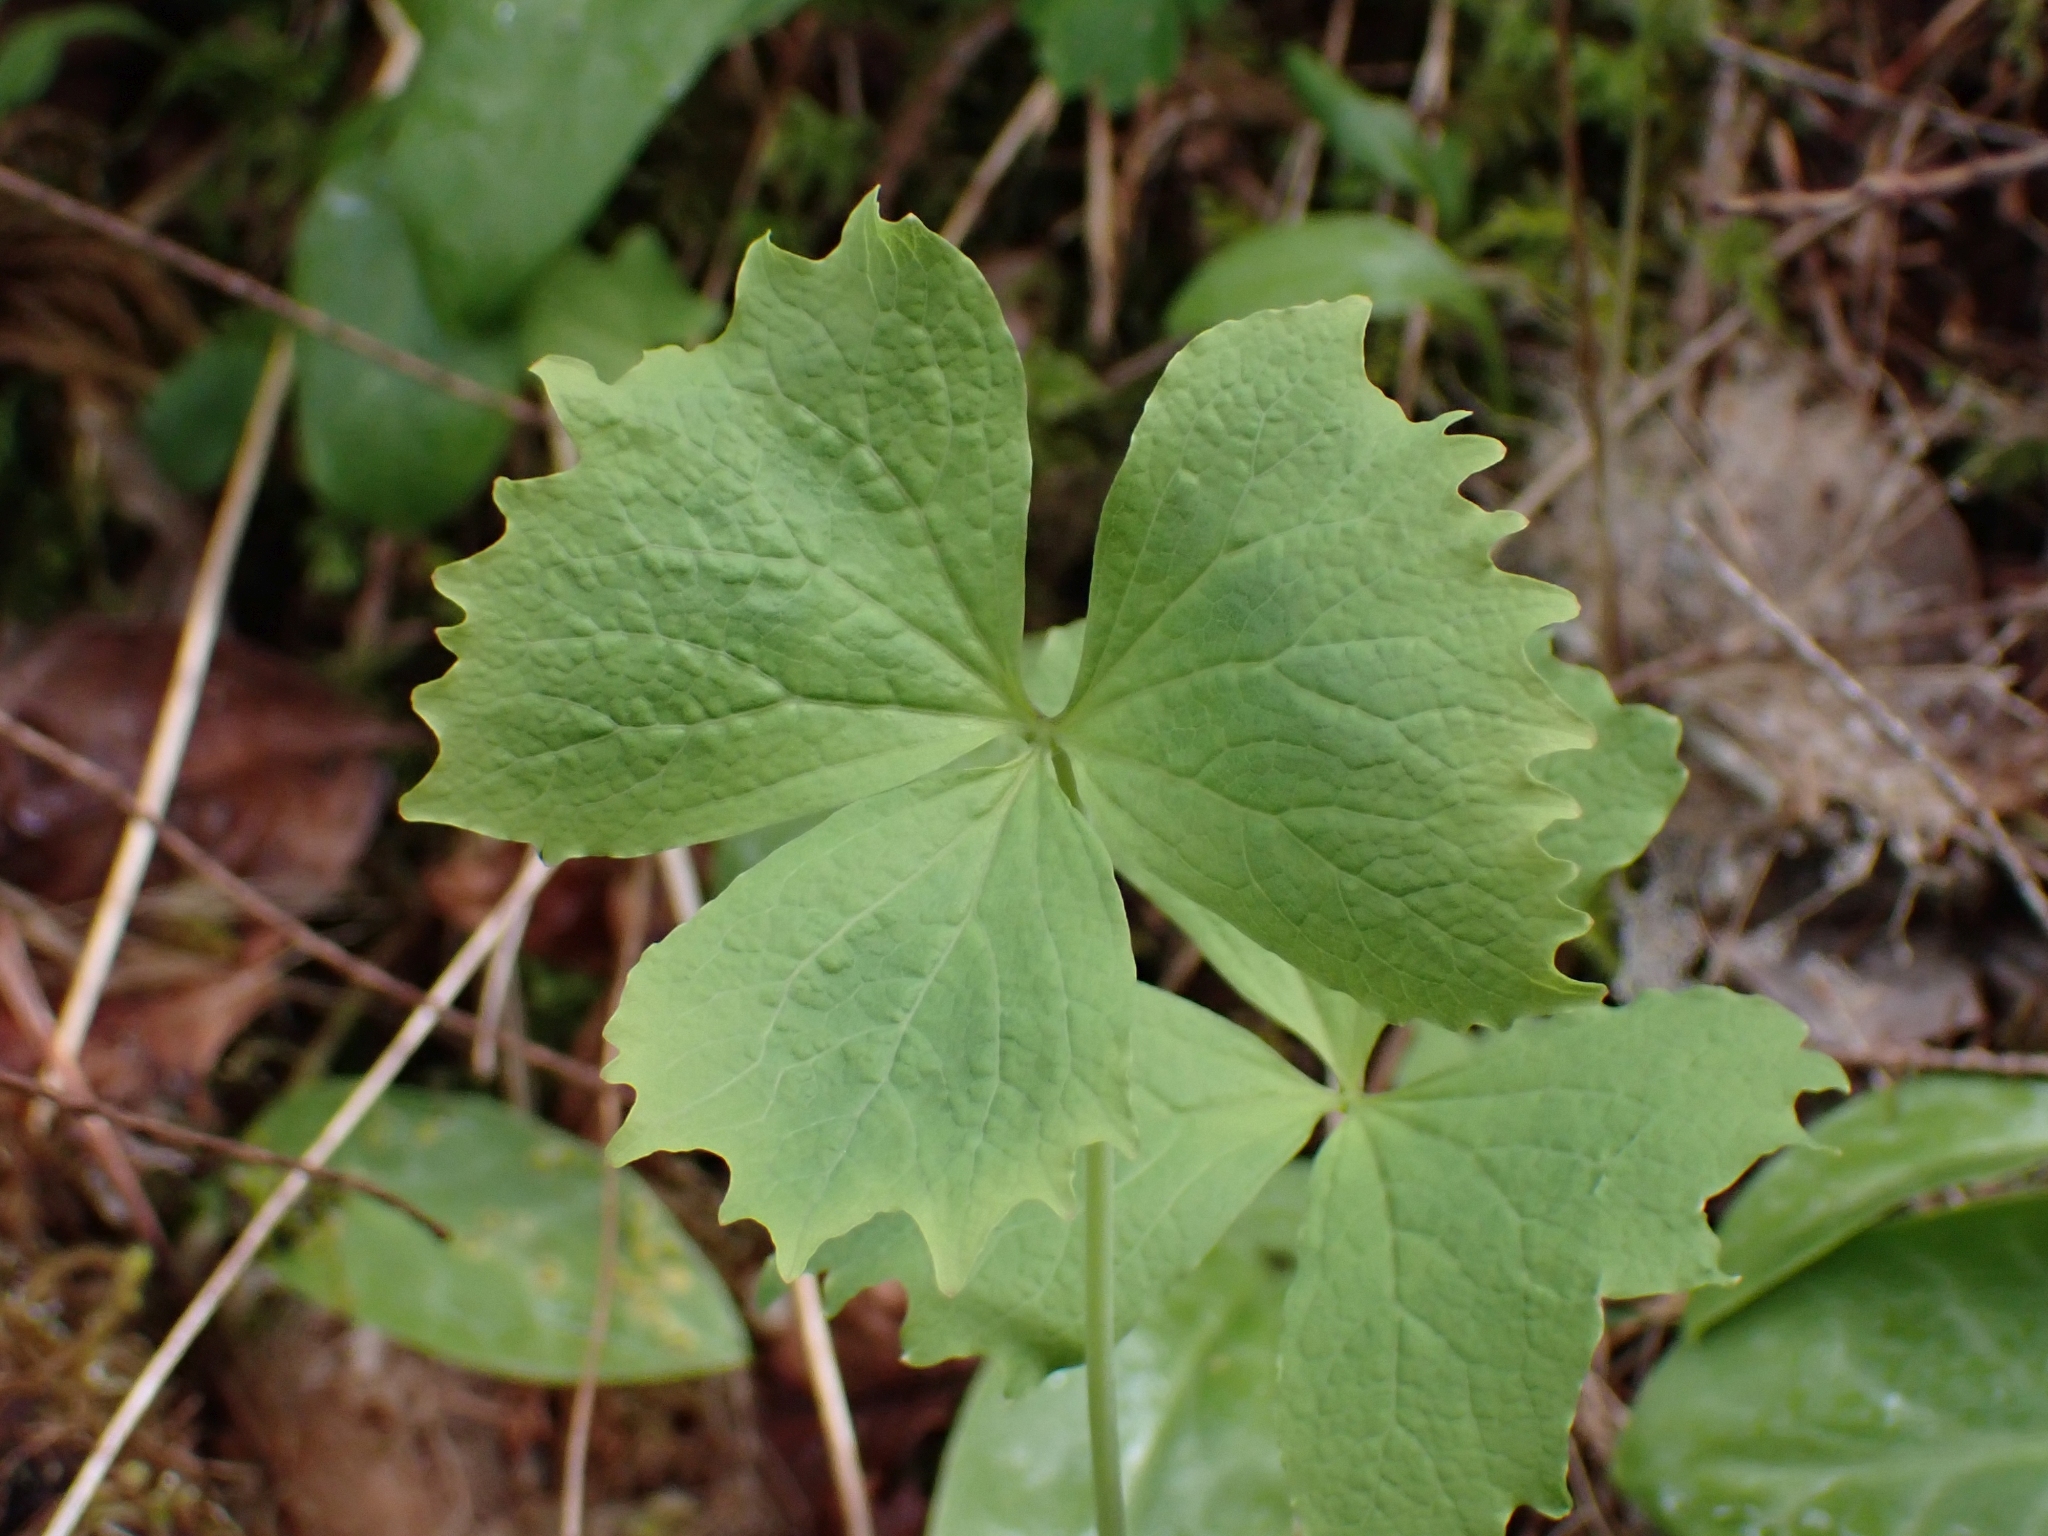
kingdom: Plantae
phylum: Tracheophyta
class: Magnoliopsida
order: Ranunculales
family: Berberidaceae
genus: Achlys
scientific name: Achlys triphylla
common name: Vanilla-leaf
